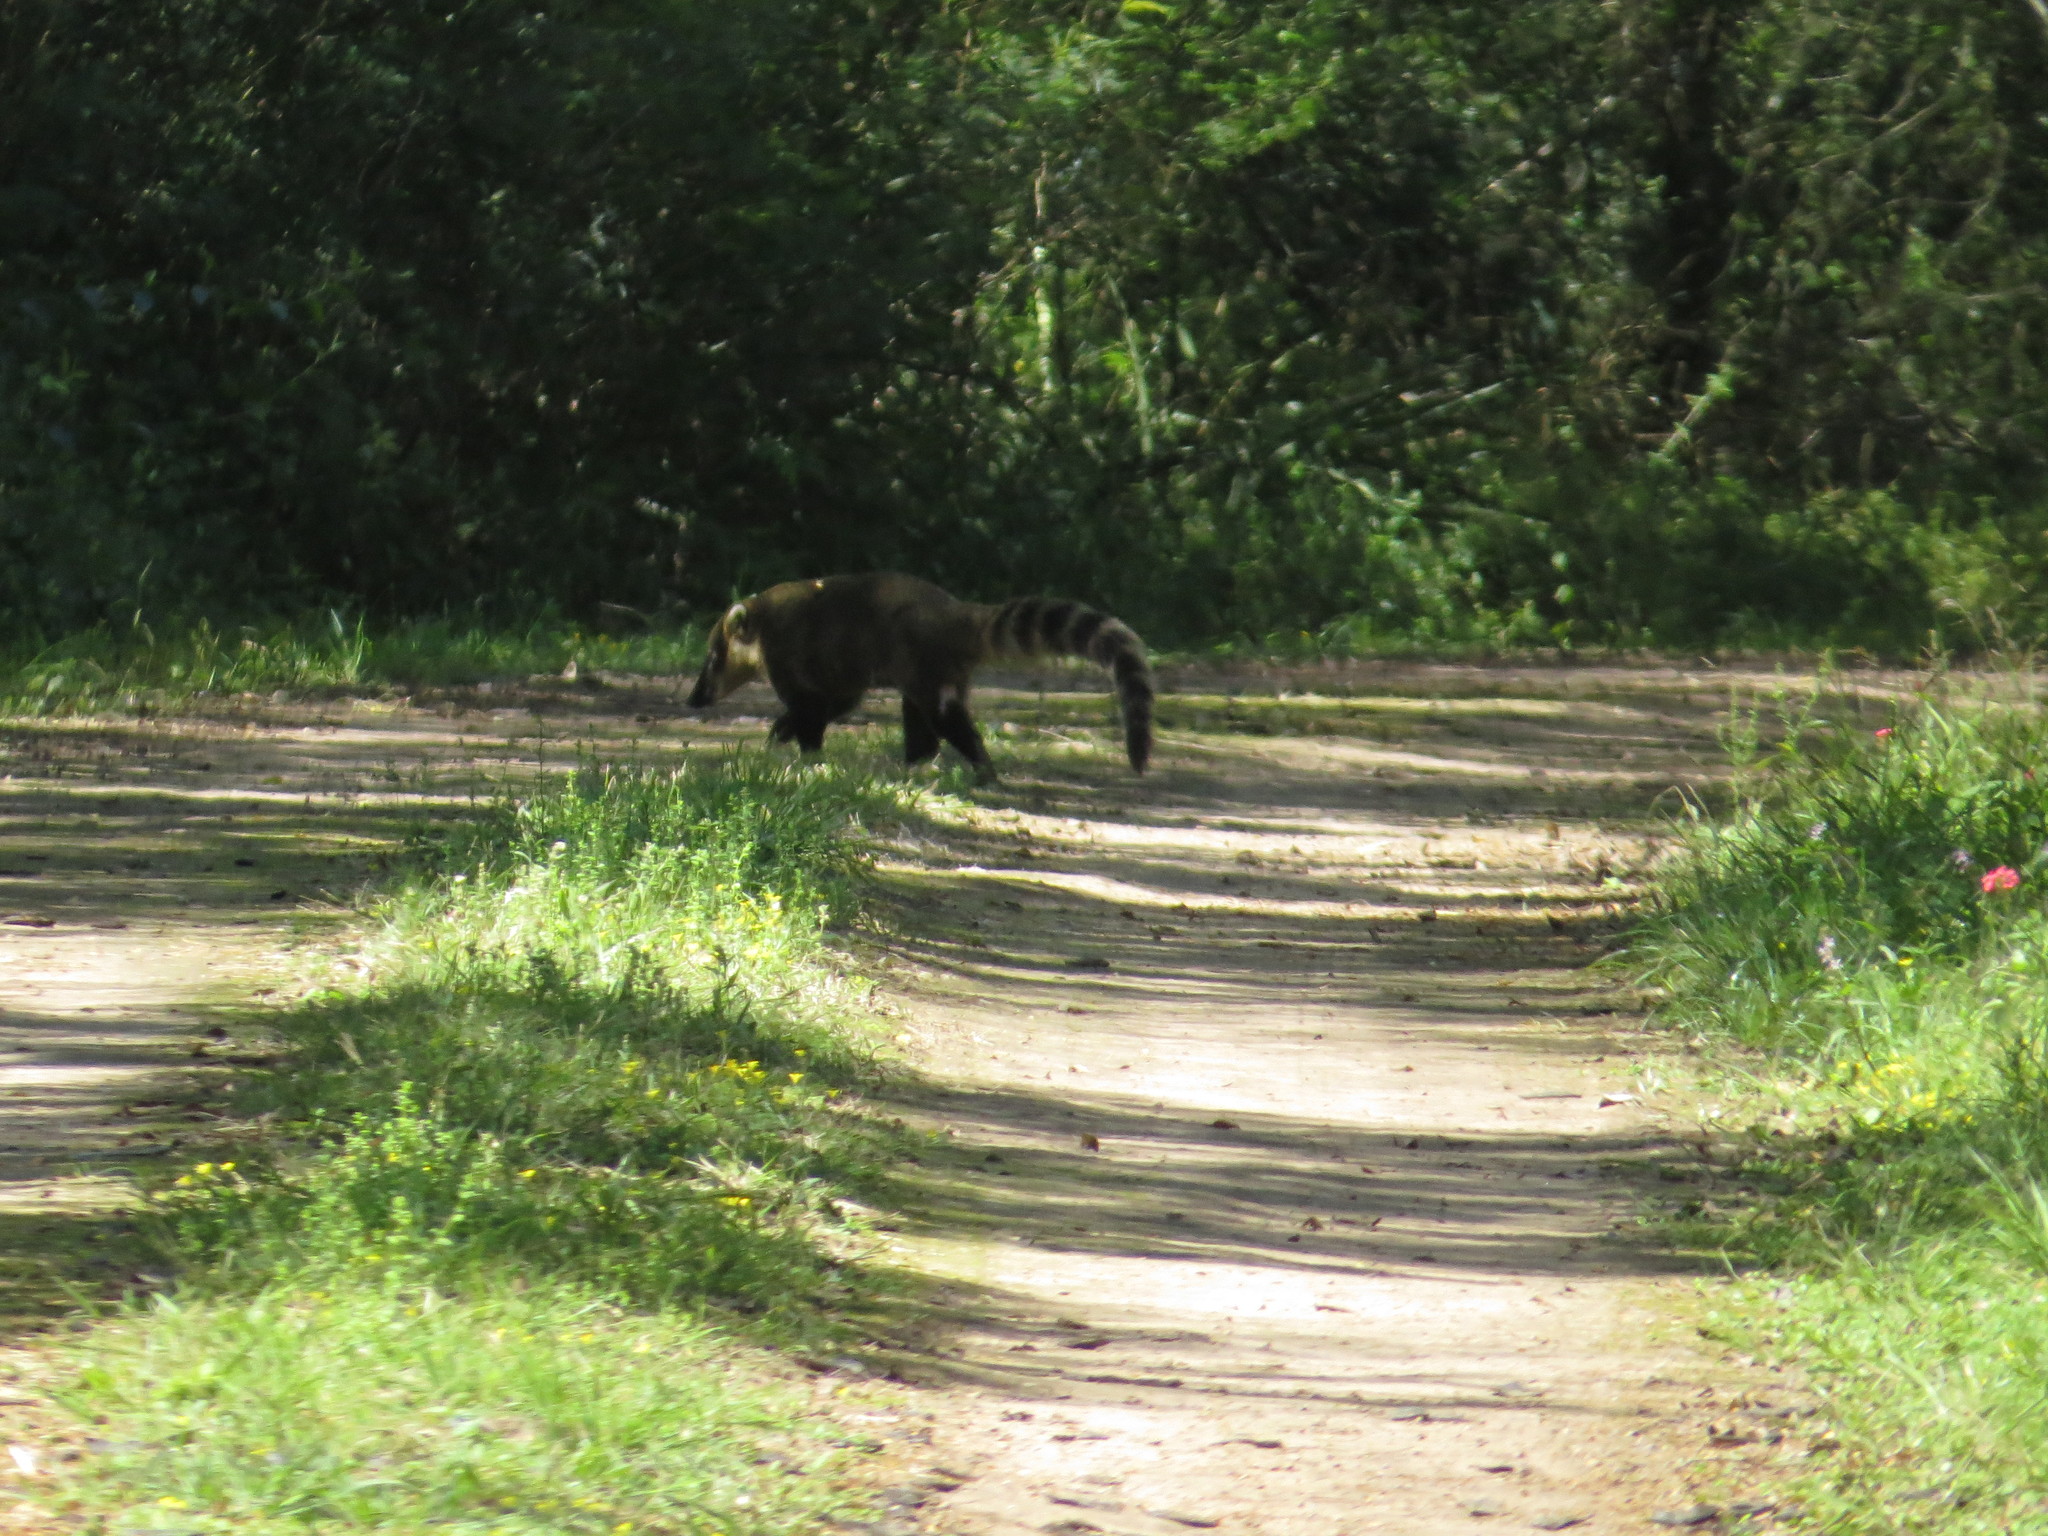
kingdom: Animalia
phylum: Chordata
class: Mammalia
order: Carnivora
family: Procyonidae
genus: Nasua
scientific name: Nasua nasua
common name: South american coati
